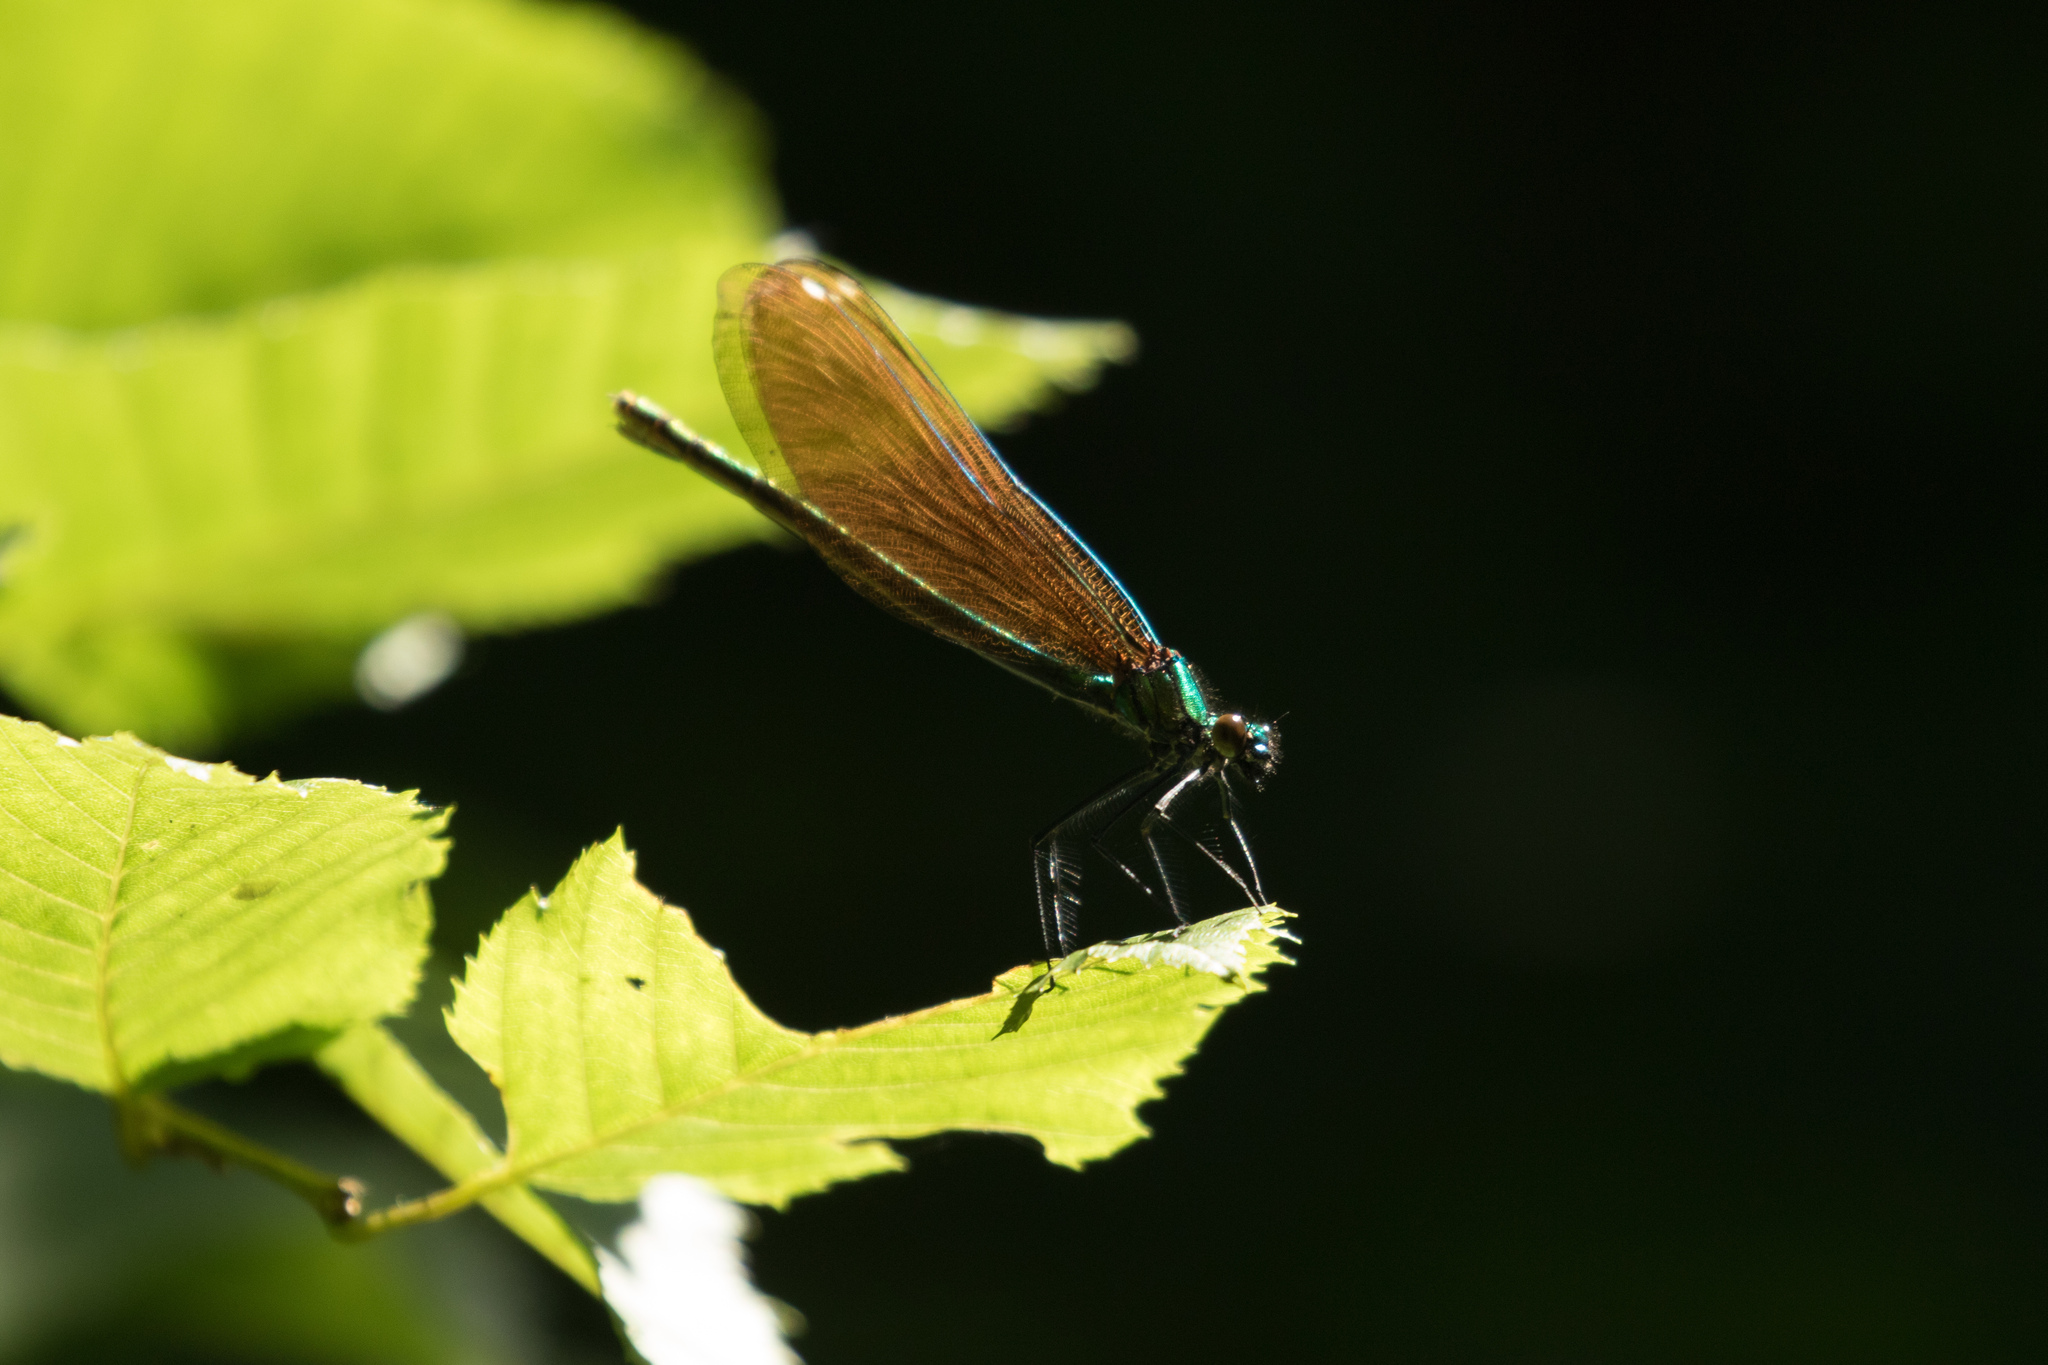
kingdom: Animalia
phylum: Arthropoda
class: Insecta
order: Odonata
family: Calopterygidae
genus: Calopteryx
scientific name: Calopteryx virgo
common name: Beautiful demoiselle
